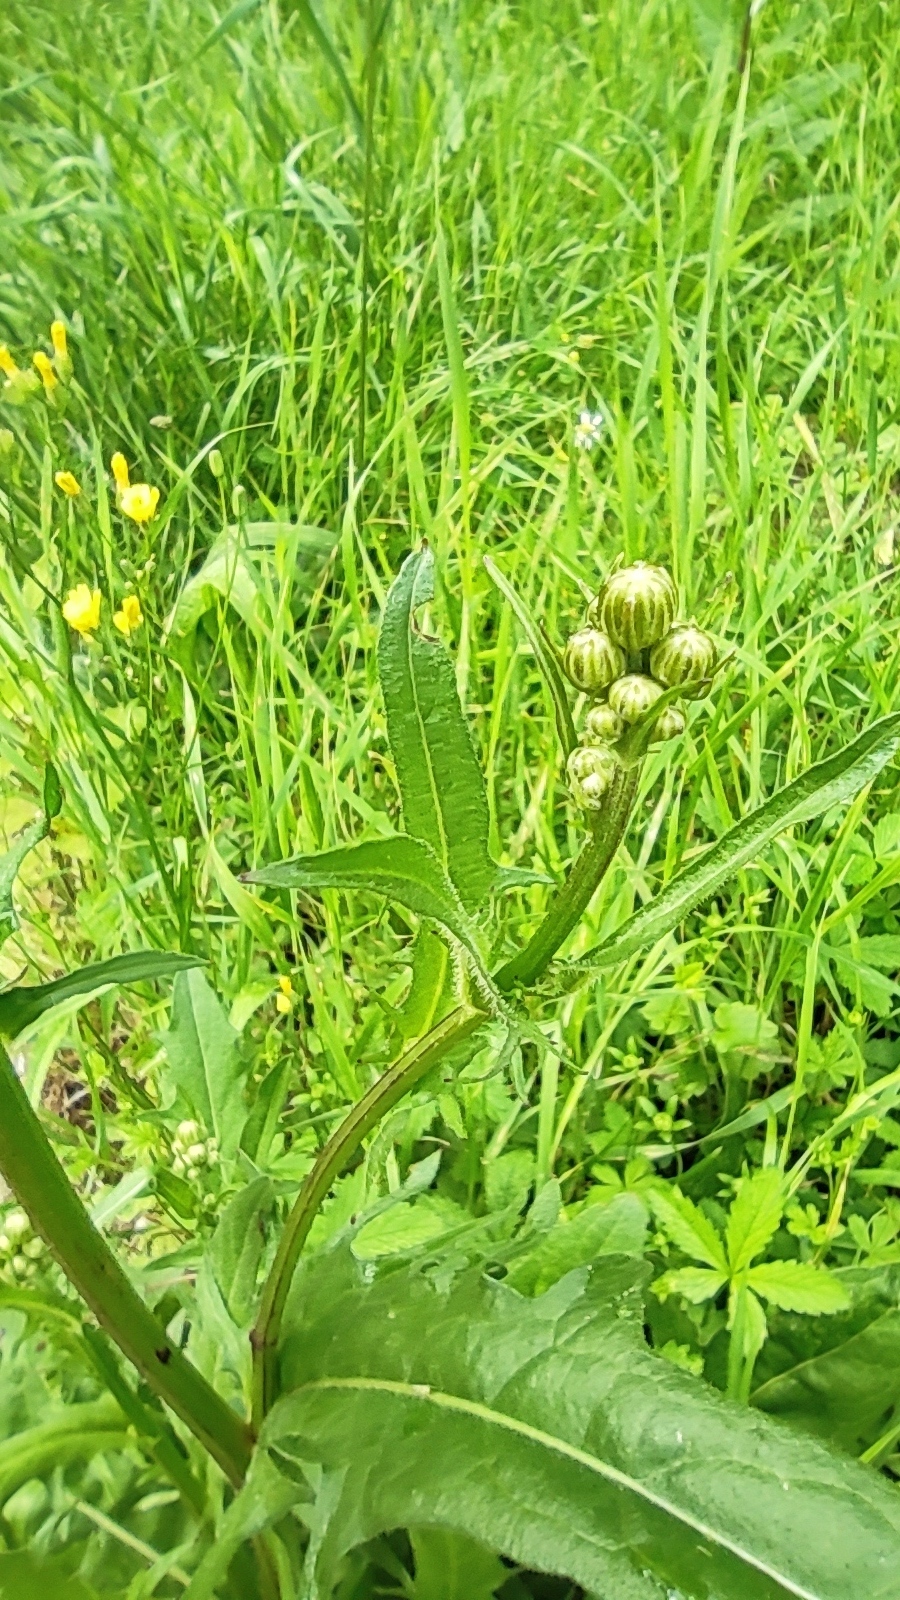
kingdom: Plantae
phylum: Tracheophyta
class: Magnoliopsida
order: Asterales
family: Asteraceae
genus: Crepis
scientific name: Crepis biennis
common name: Rough hawk's-beard
